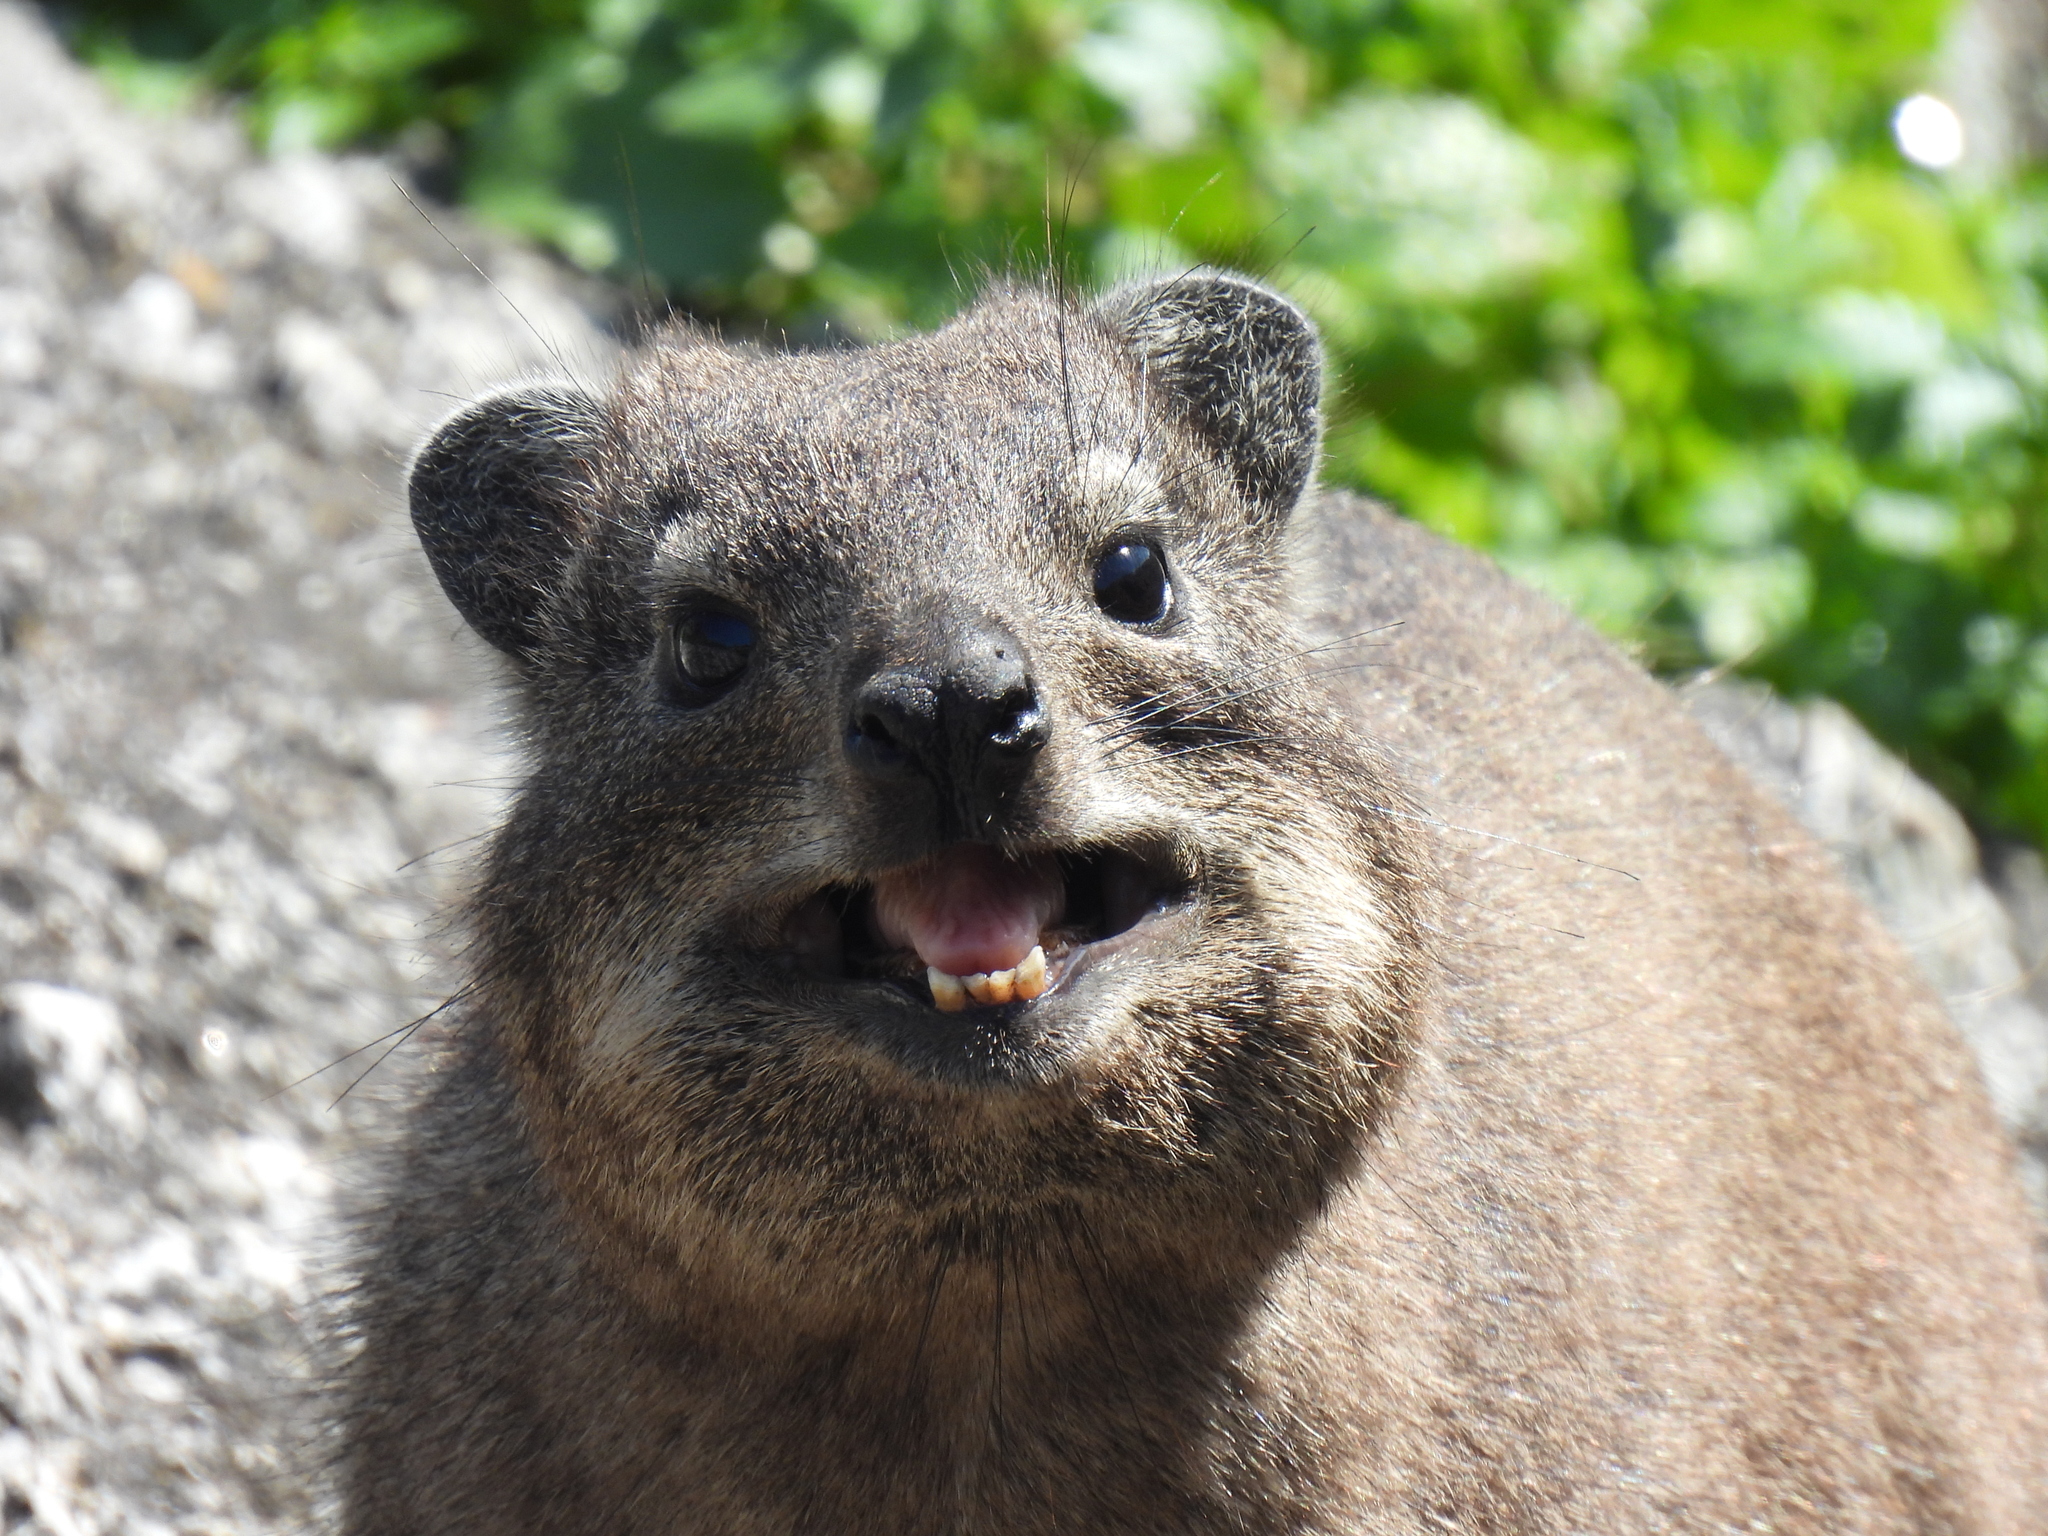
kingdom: Animalia
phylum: Chordata
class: Mammalia
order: Hyracoidea
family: Procaviidae
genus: Procavia
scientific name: Procavia capensis
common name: Rock hyrax
